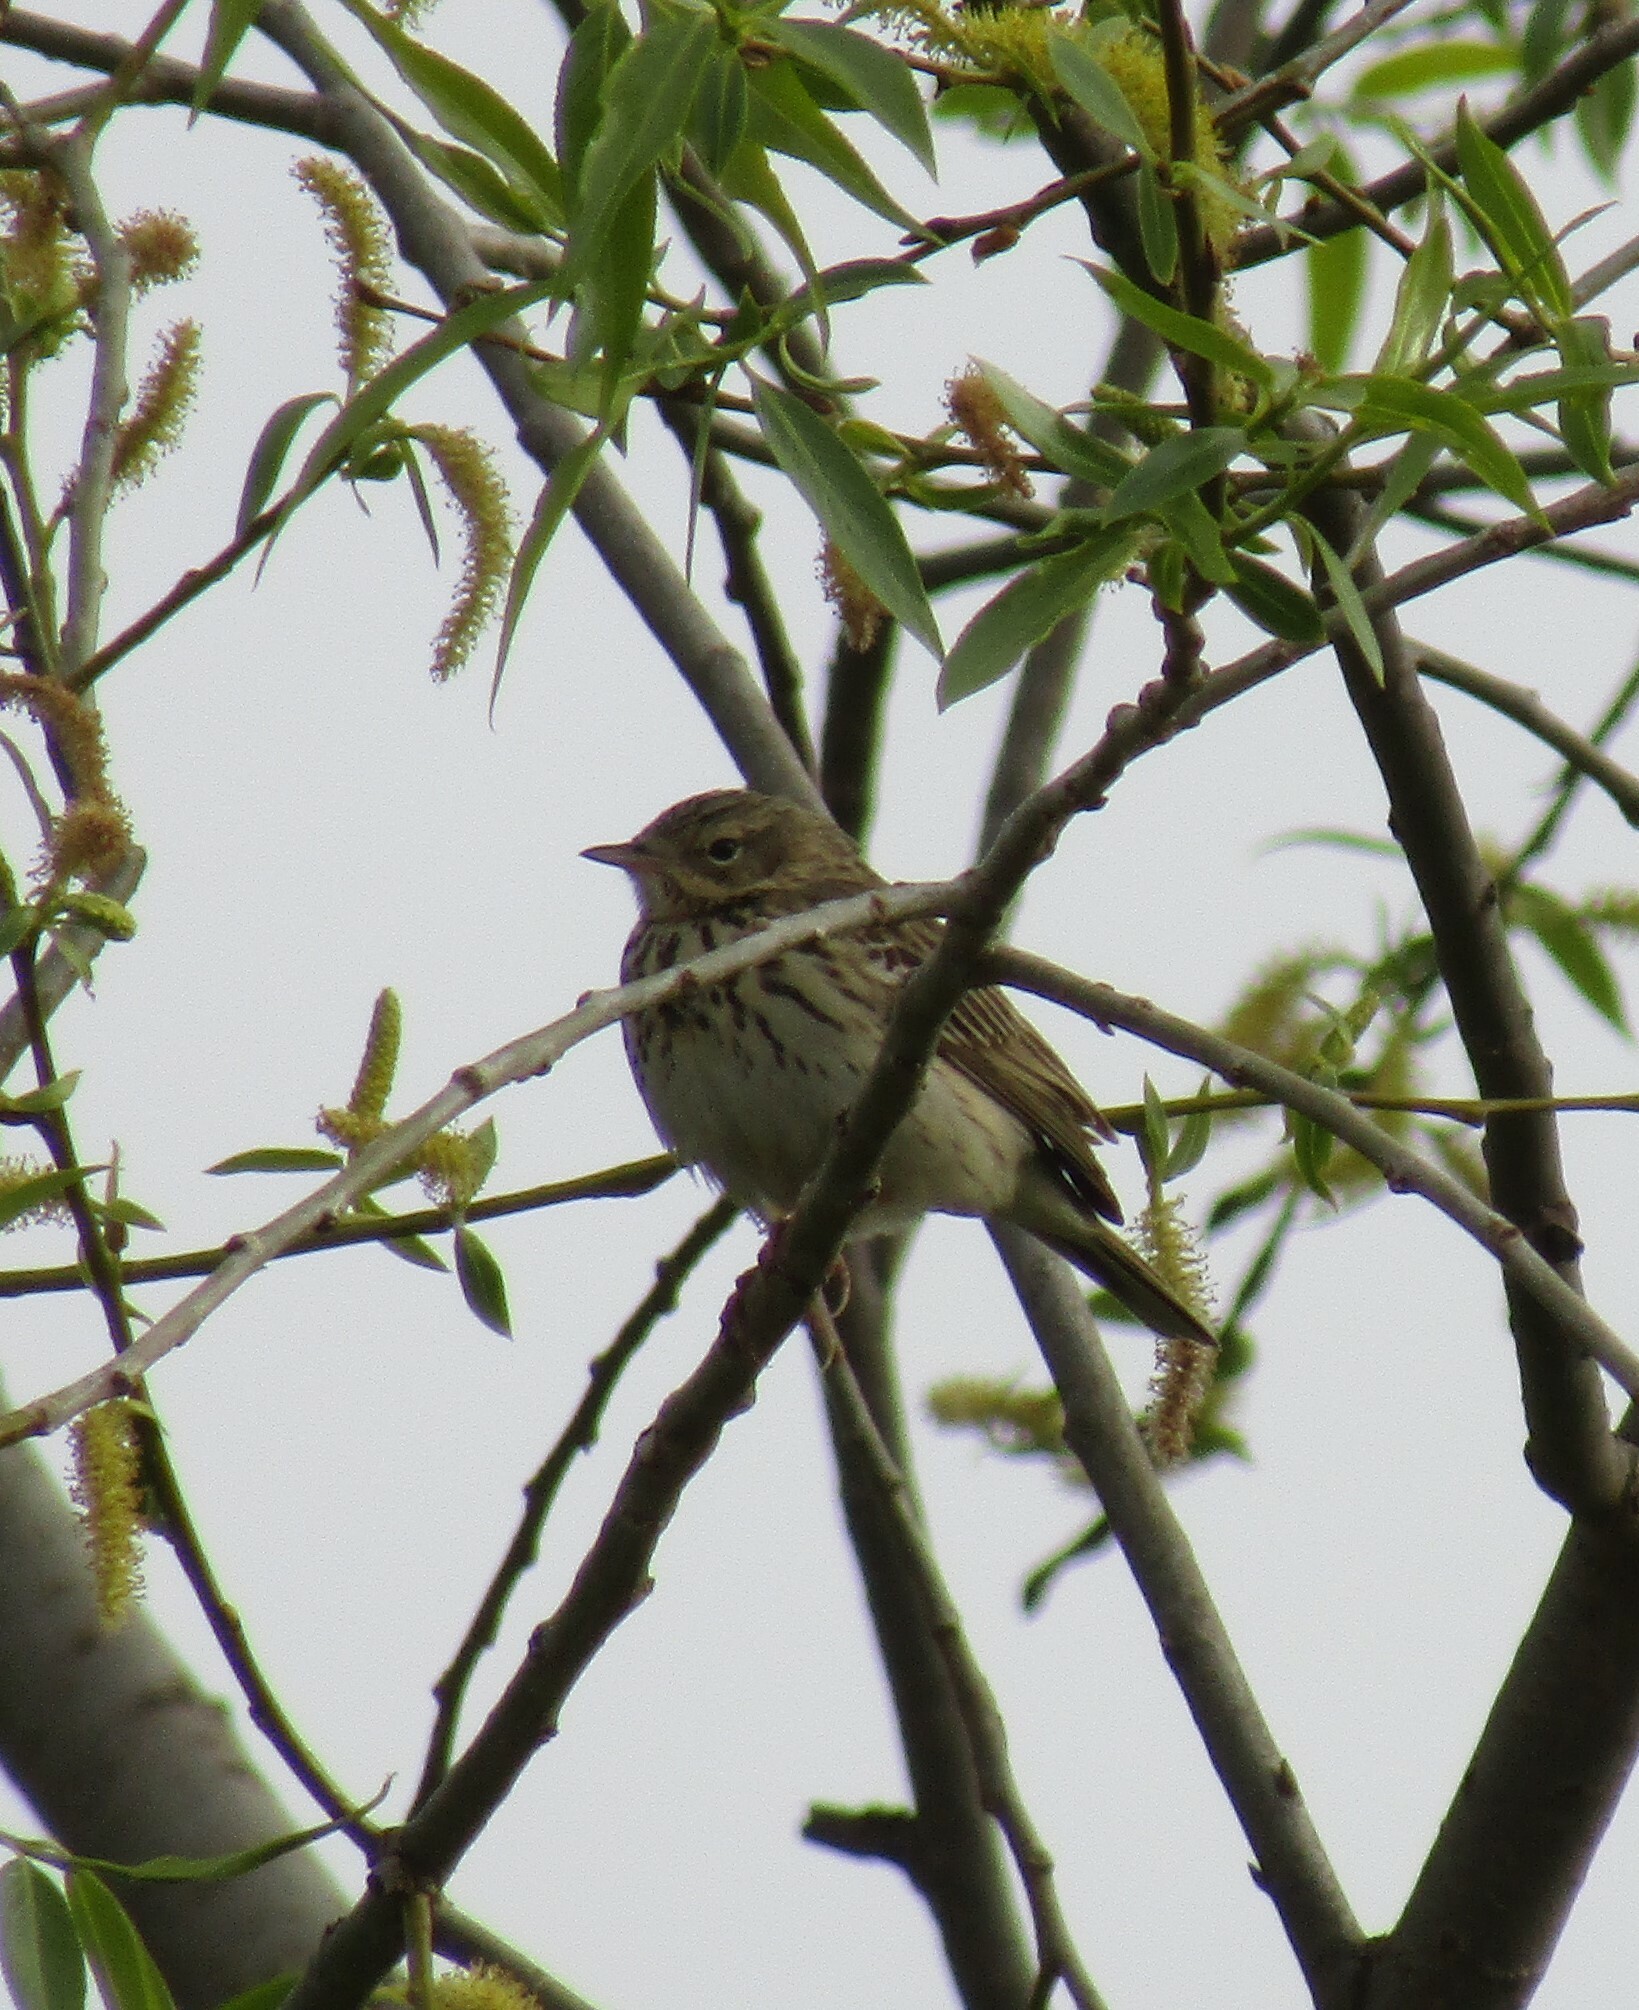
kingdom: Animalia
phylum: Chordata
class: Aves
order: Passeriformes
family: Motacillidae
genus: Anthus
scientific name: Anthus trivialis
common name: Tree pipit
